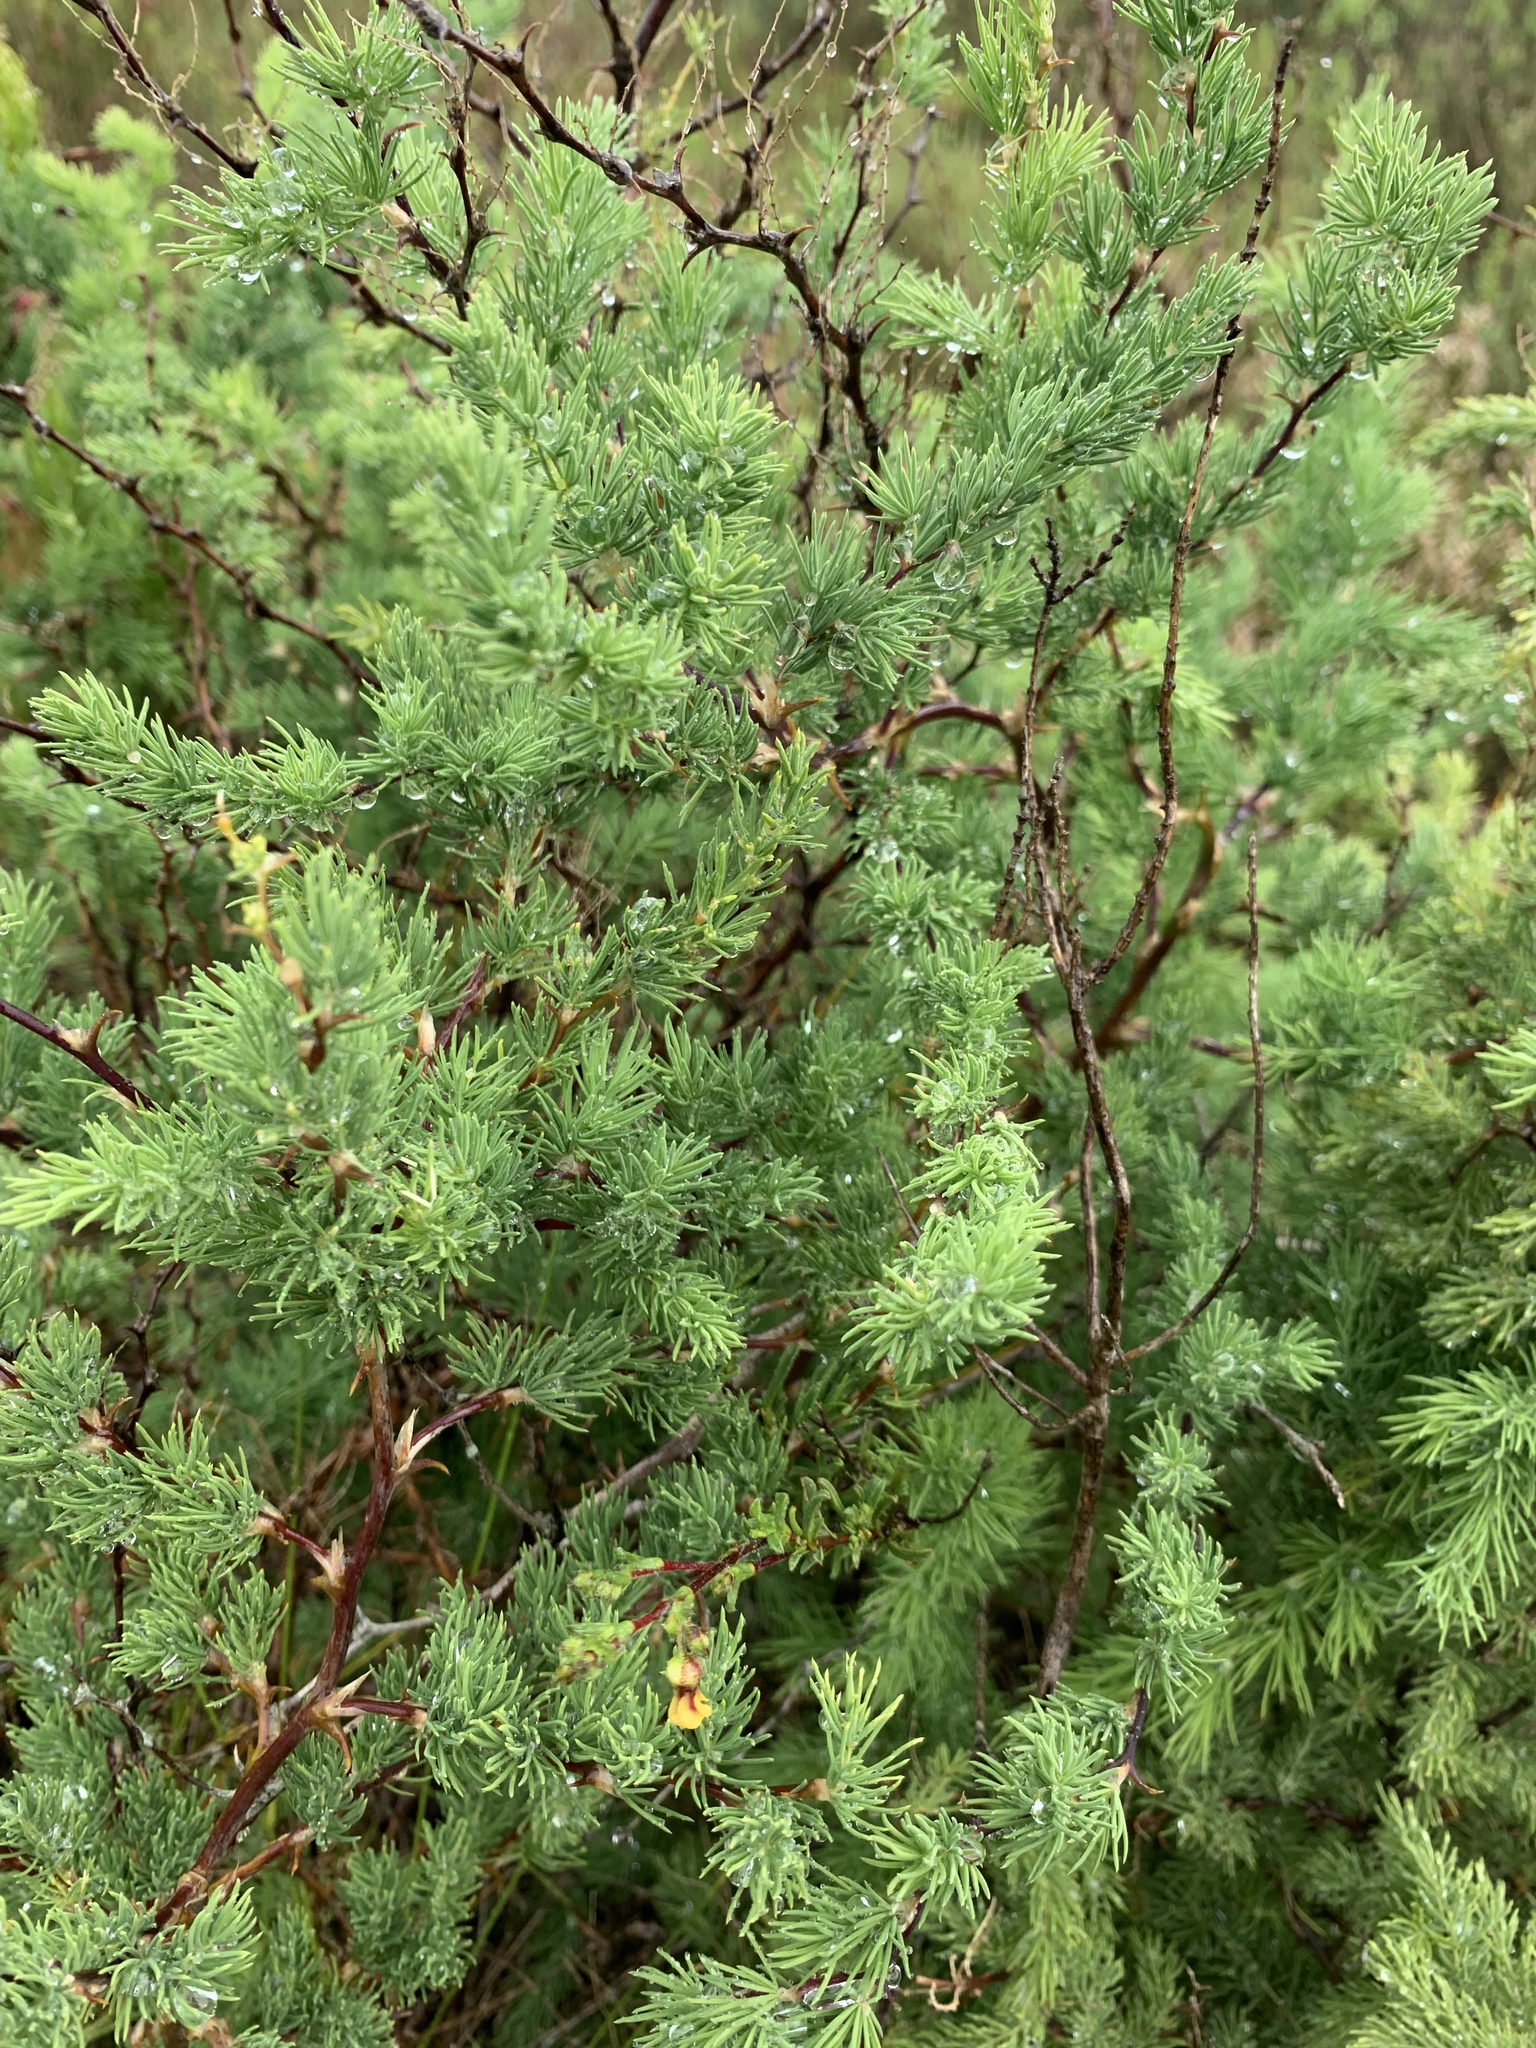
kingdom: Plantae
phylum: Tracheophyta
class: Liliopsida
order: Asparagales
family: Asparagaceae
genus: Asparagus
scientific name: Asparagus rubicundus
